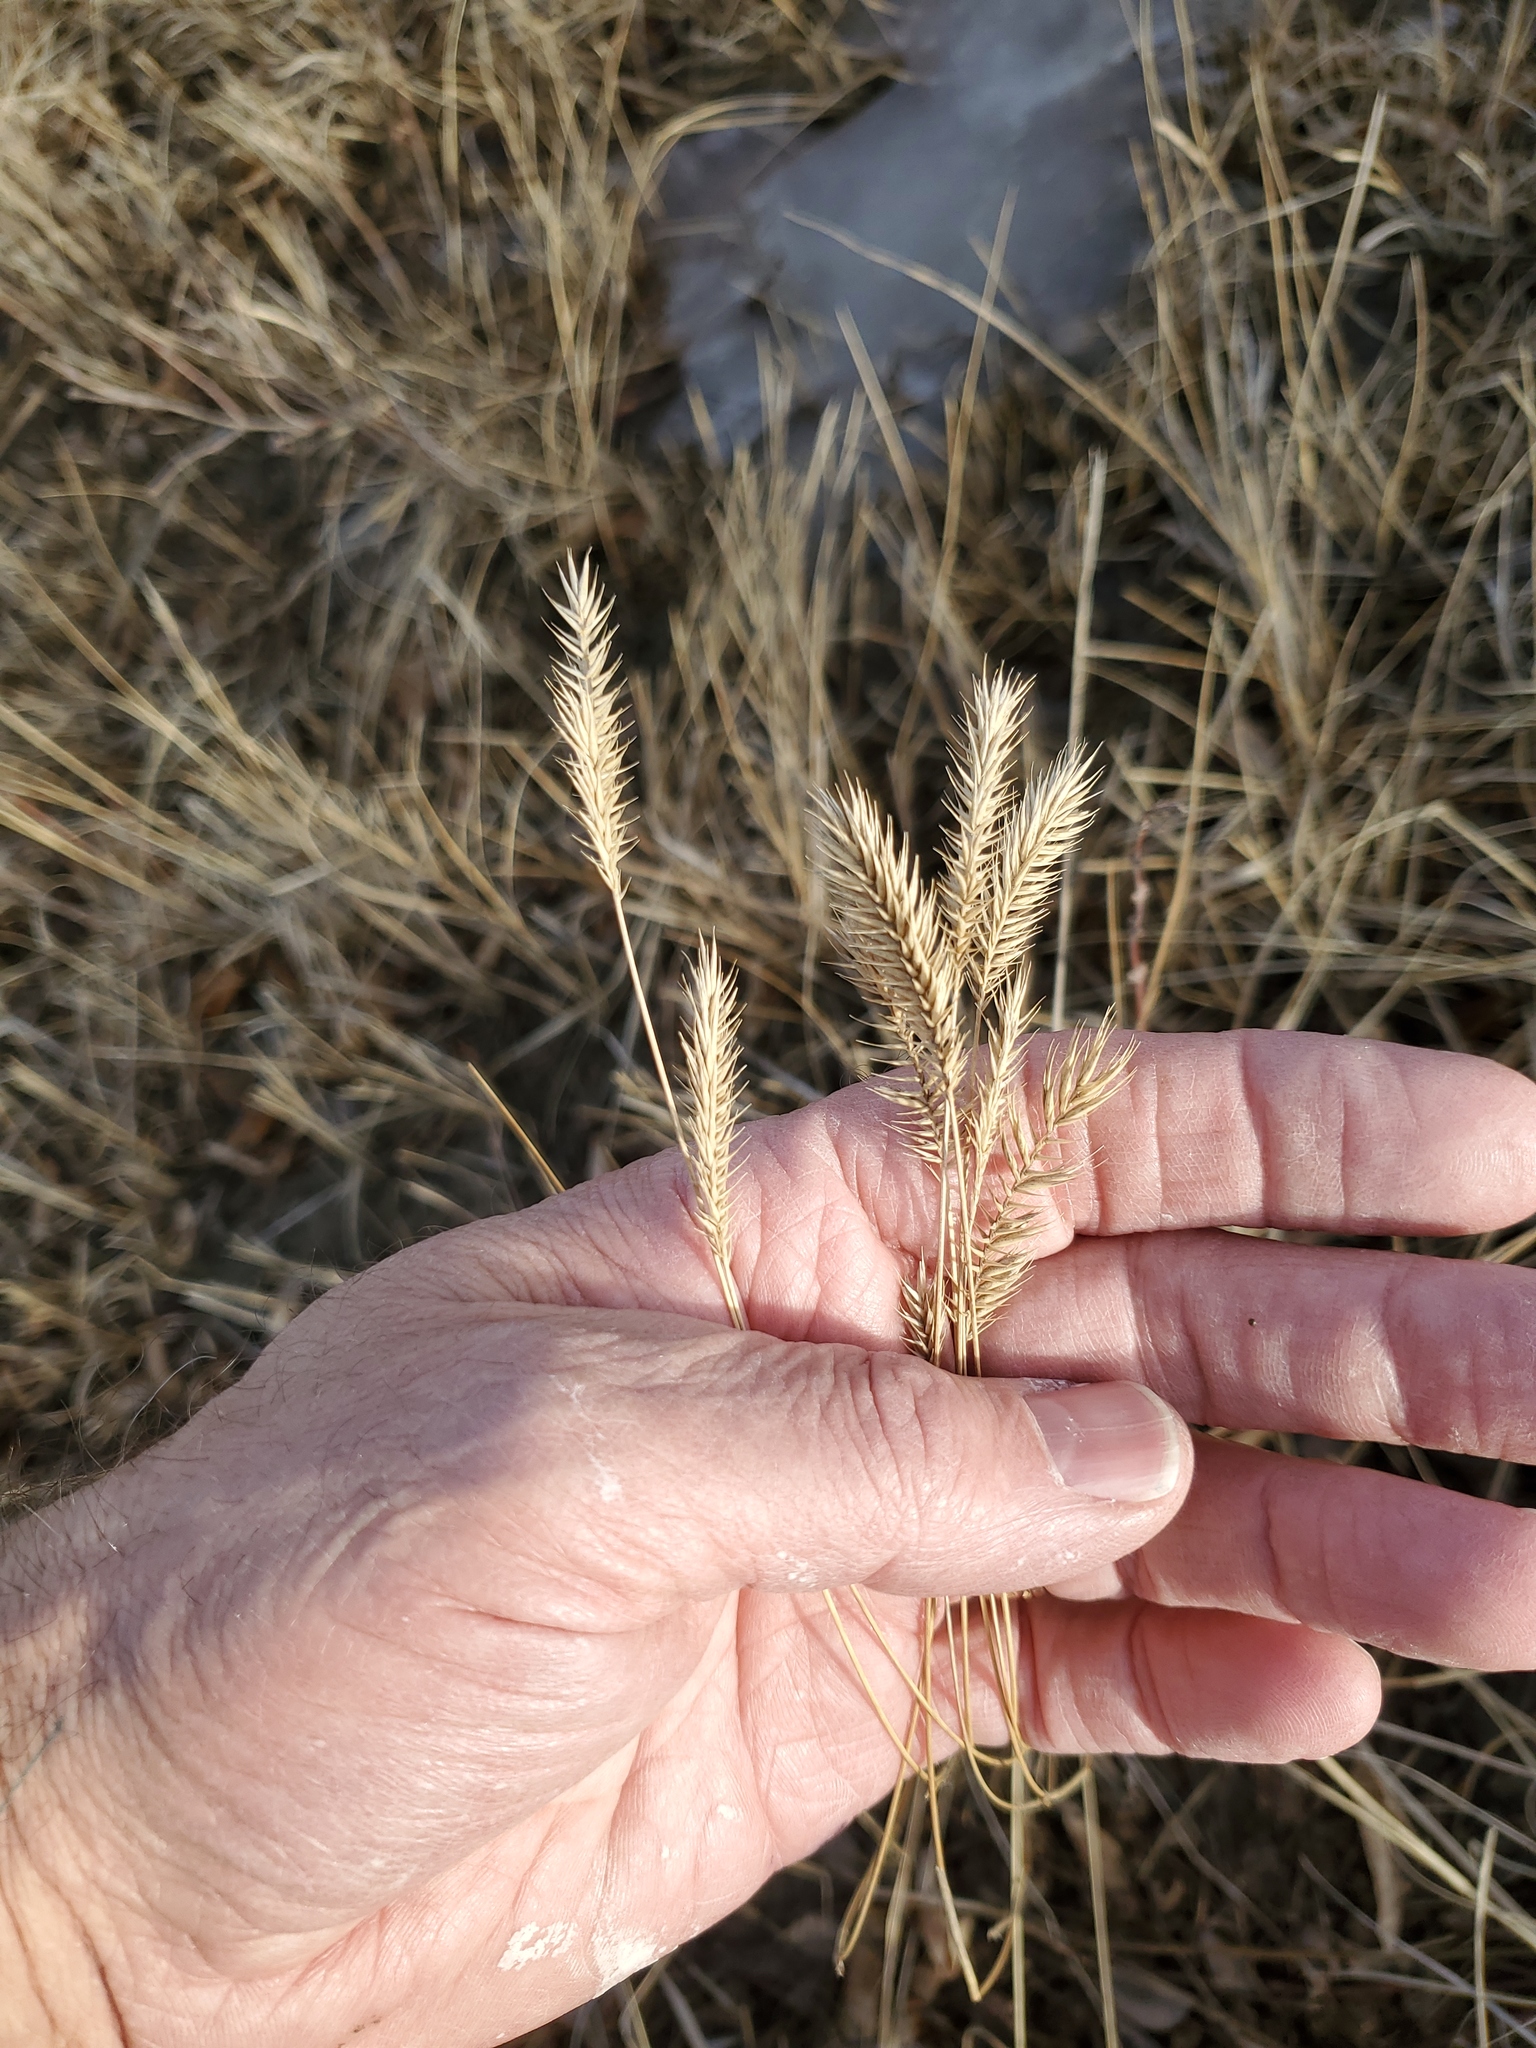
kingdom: Plantae
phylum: Tracheophyta
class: Liliopsida
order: Poales
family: Poaceae
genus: Agropyron
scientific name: Agropyron cristatum
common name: Crested wheatgrass
